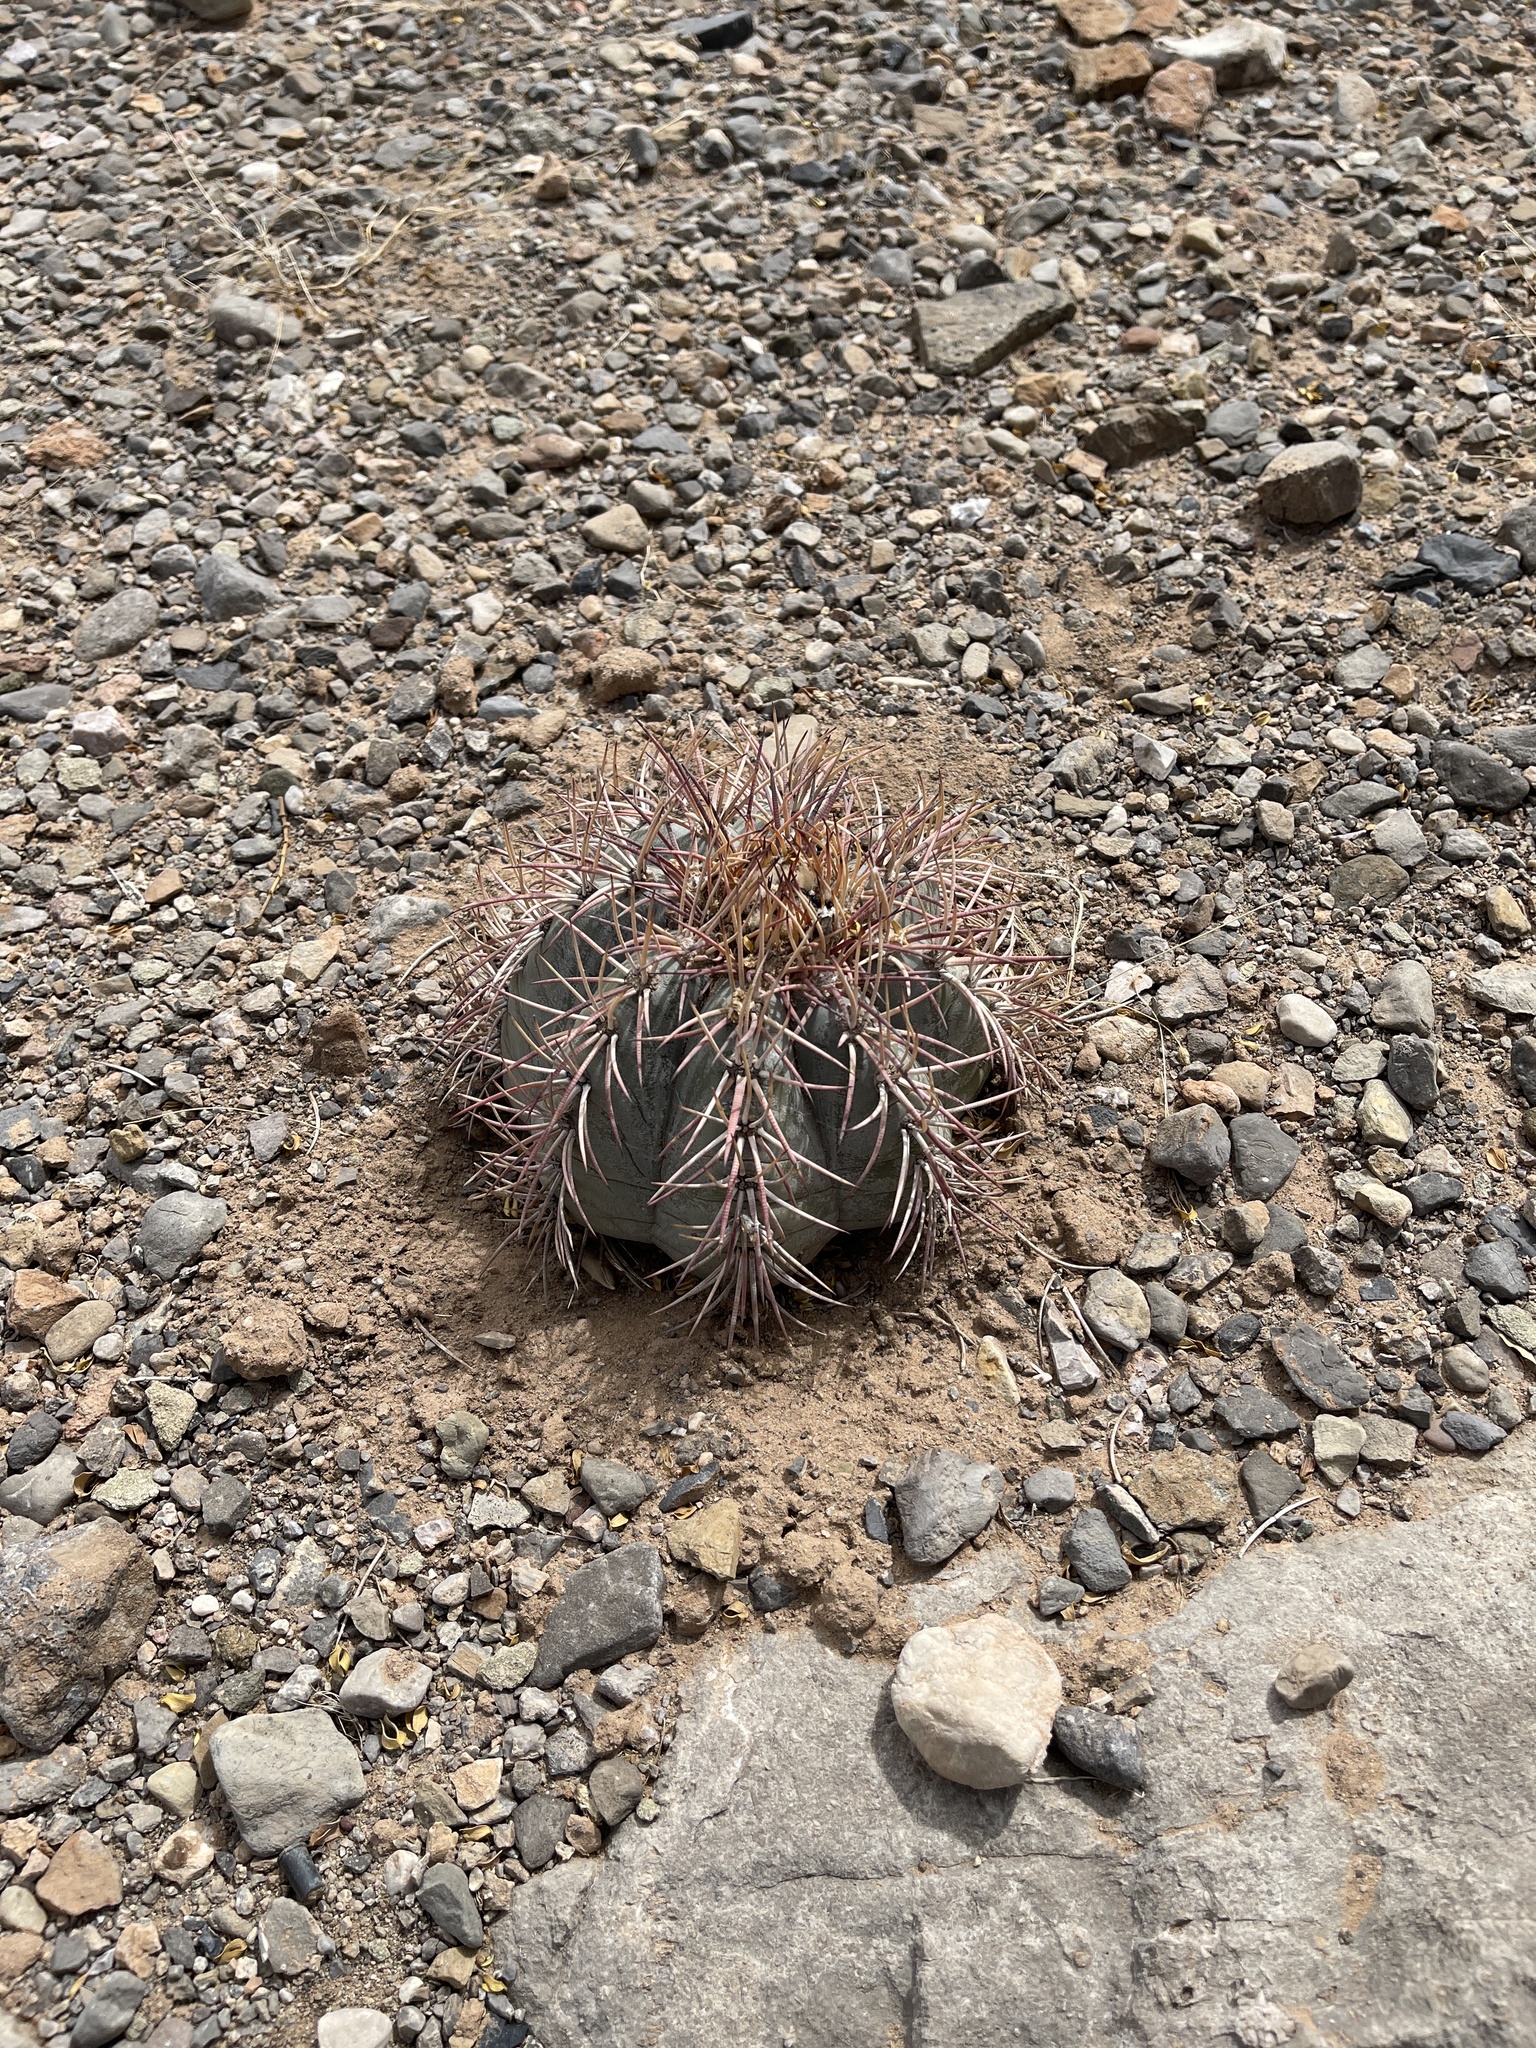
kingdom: Plantae
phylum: Tracheophyta
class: Magnoliopsida
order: Caryophyllales
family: Cactaceae
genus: Echinocactus
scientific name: Echinocactus horizonthalonius
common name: Devilshead
